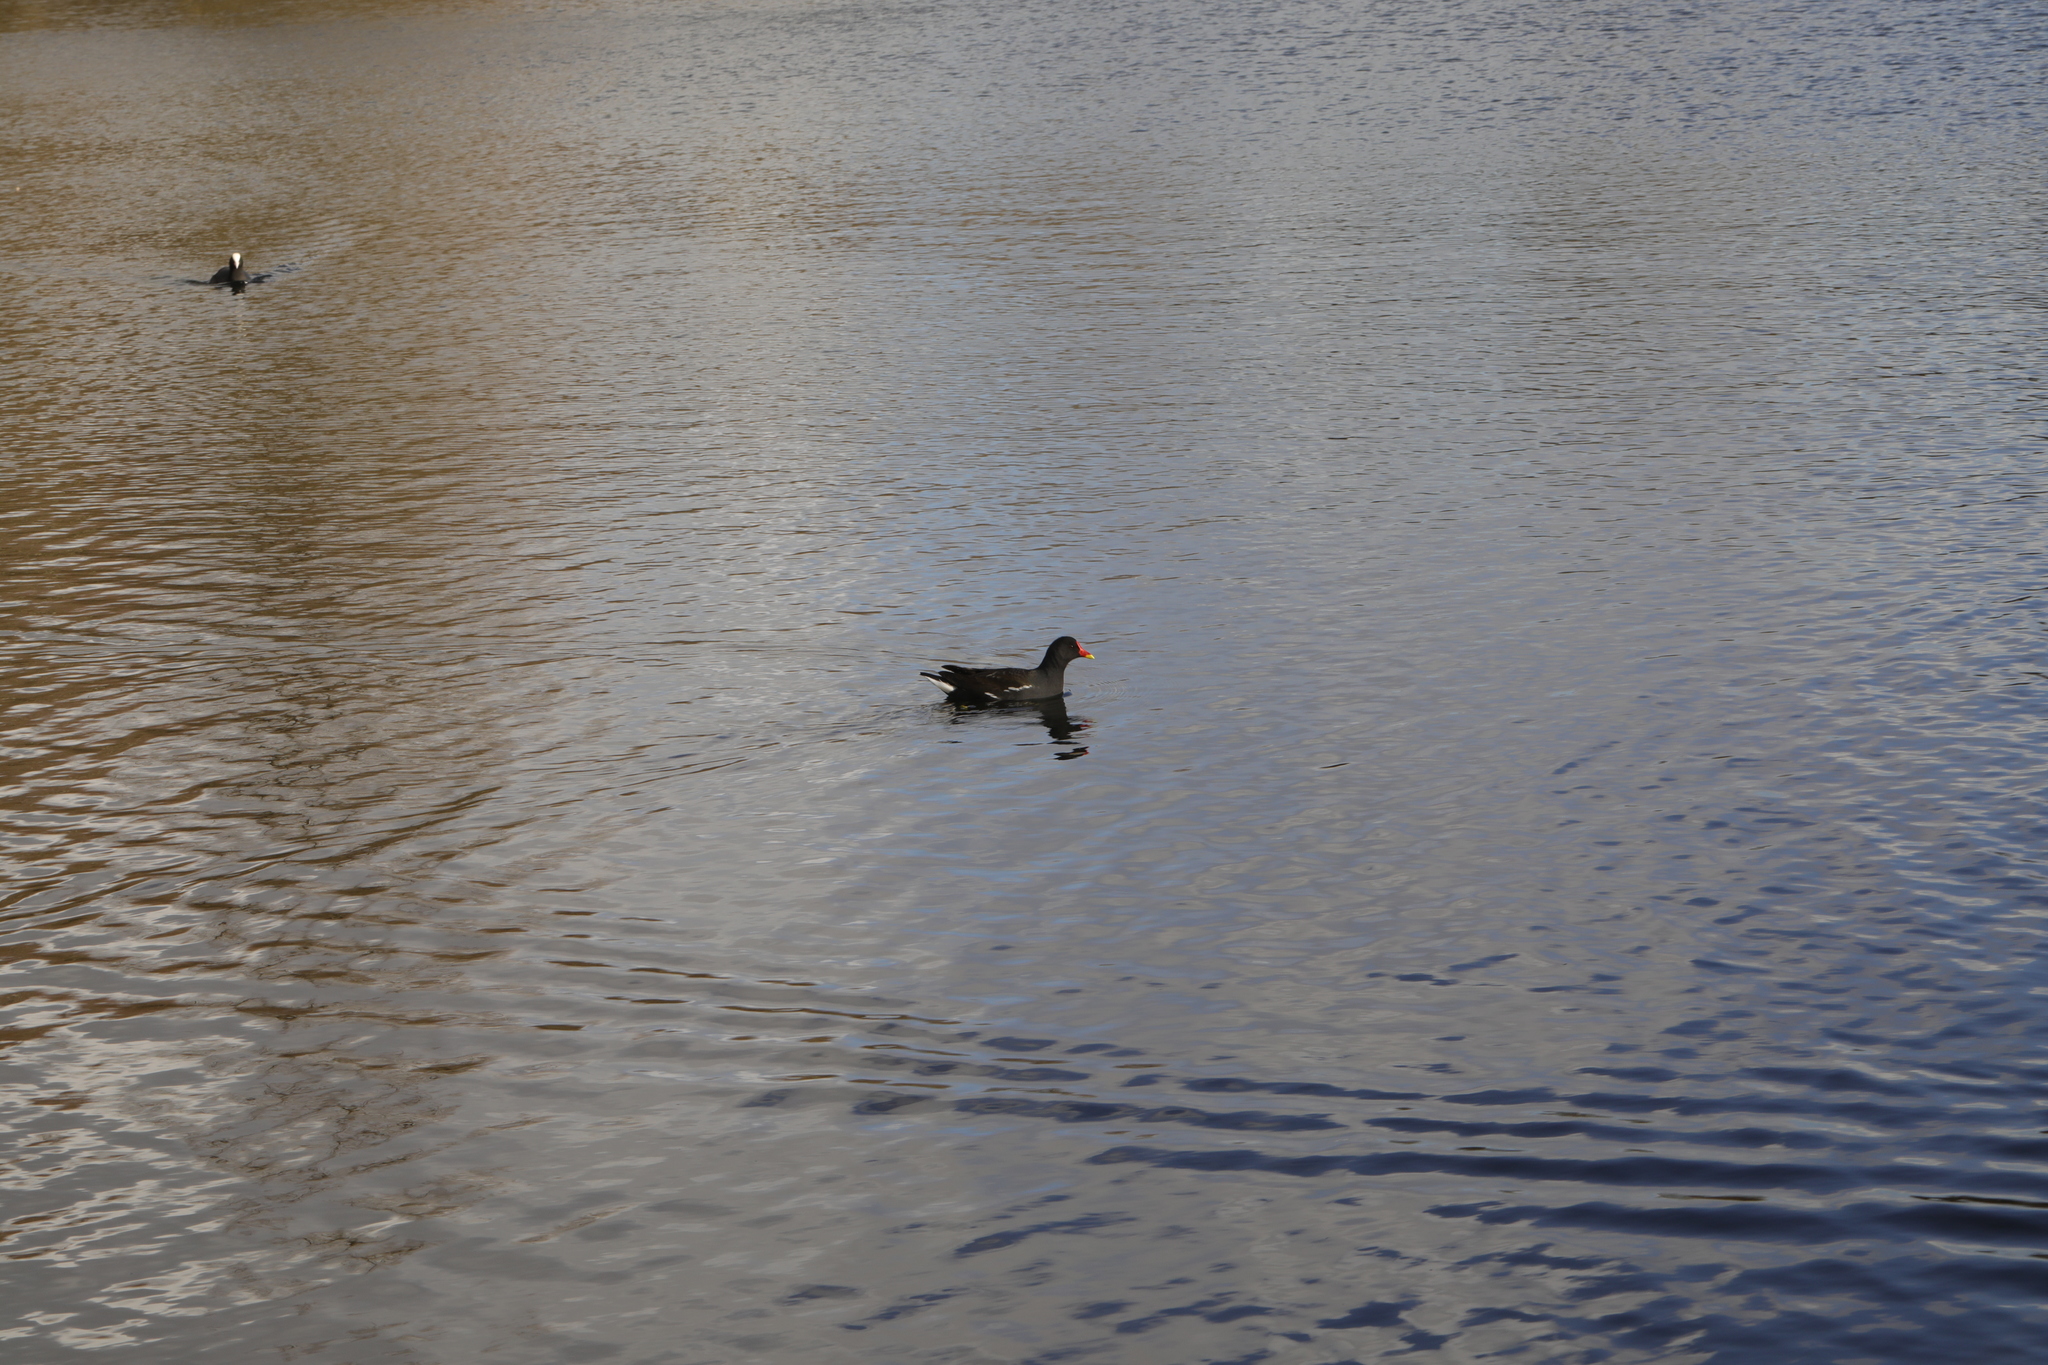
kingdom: Animalia
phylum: Chordata
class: Aves
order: Gruiformes
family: Rallidae
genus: Gallinula
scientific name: Gallinula chloropus
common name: Common moorhen
